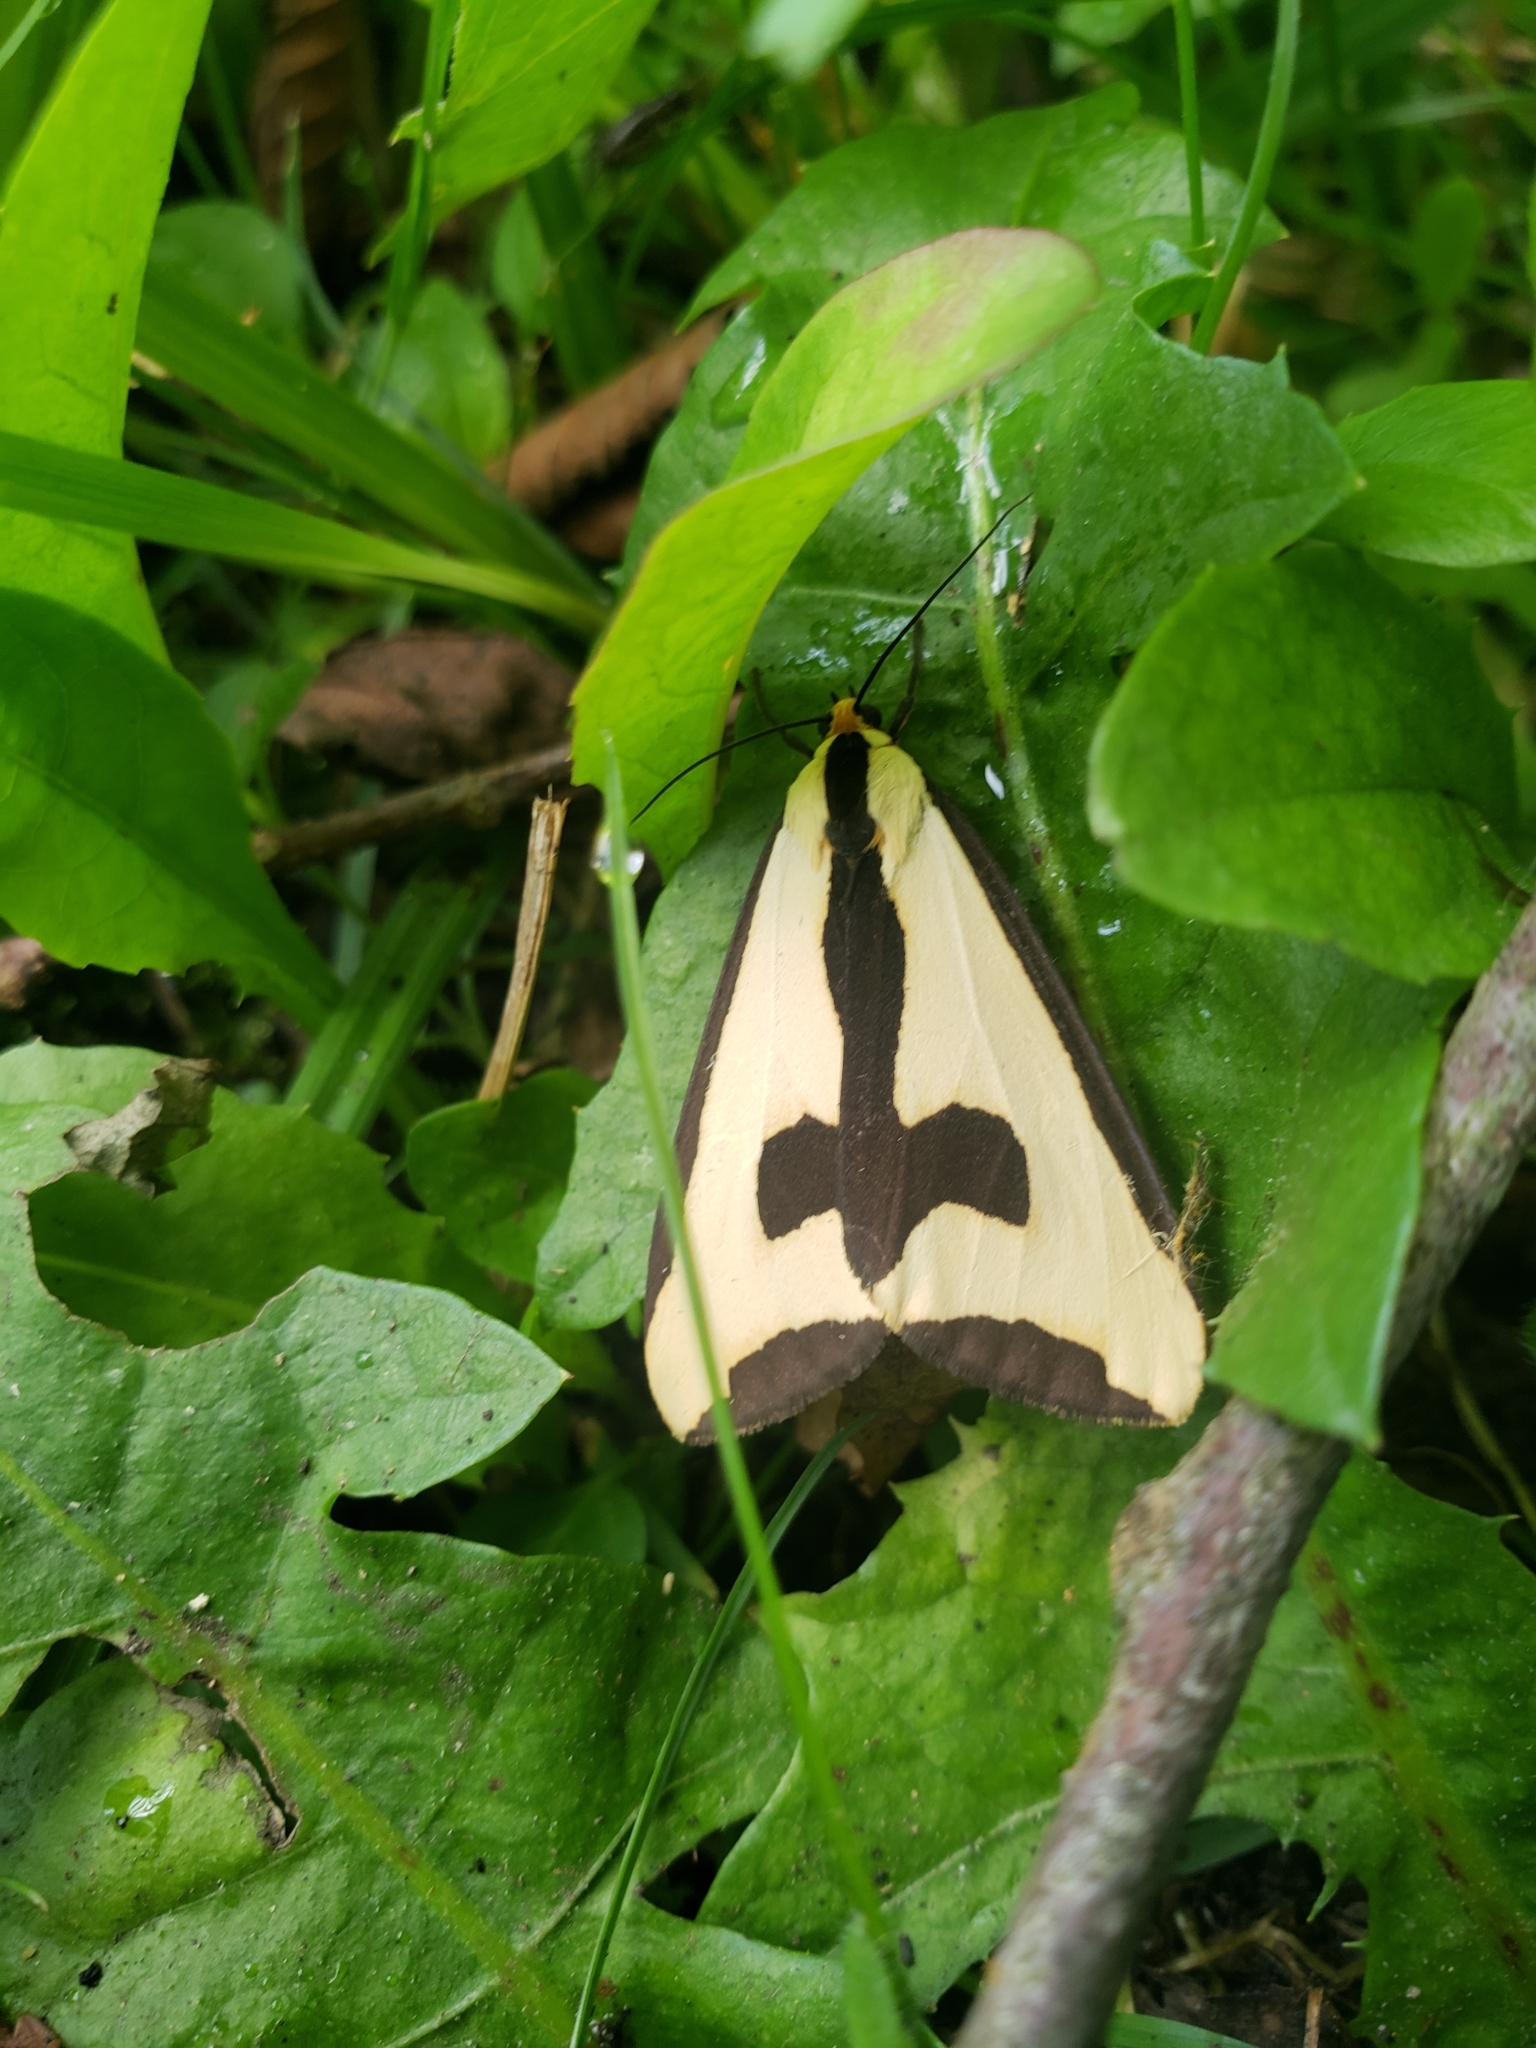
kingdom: Animalia
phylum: Arthropoda
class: Insecta
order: Lepidoptera
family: Erebidae
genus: Haploa
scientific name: Haploa clymene
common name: Clymene moth
